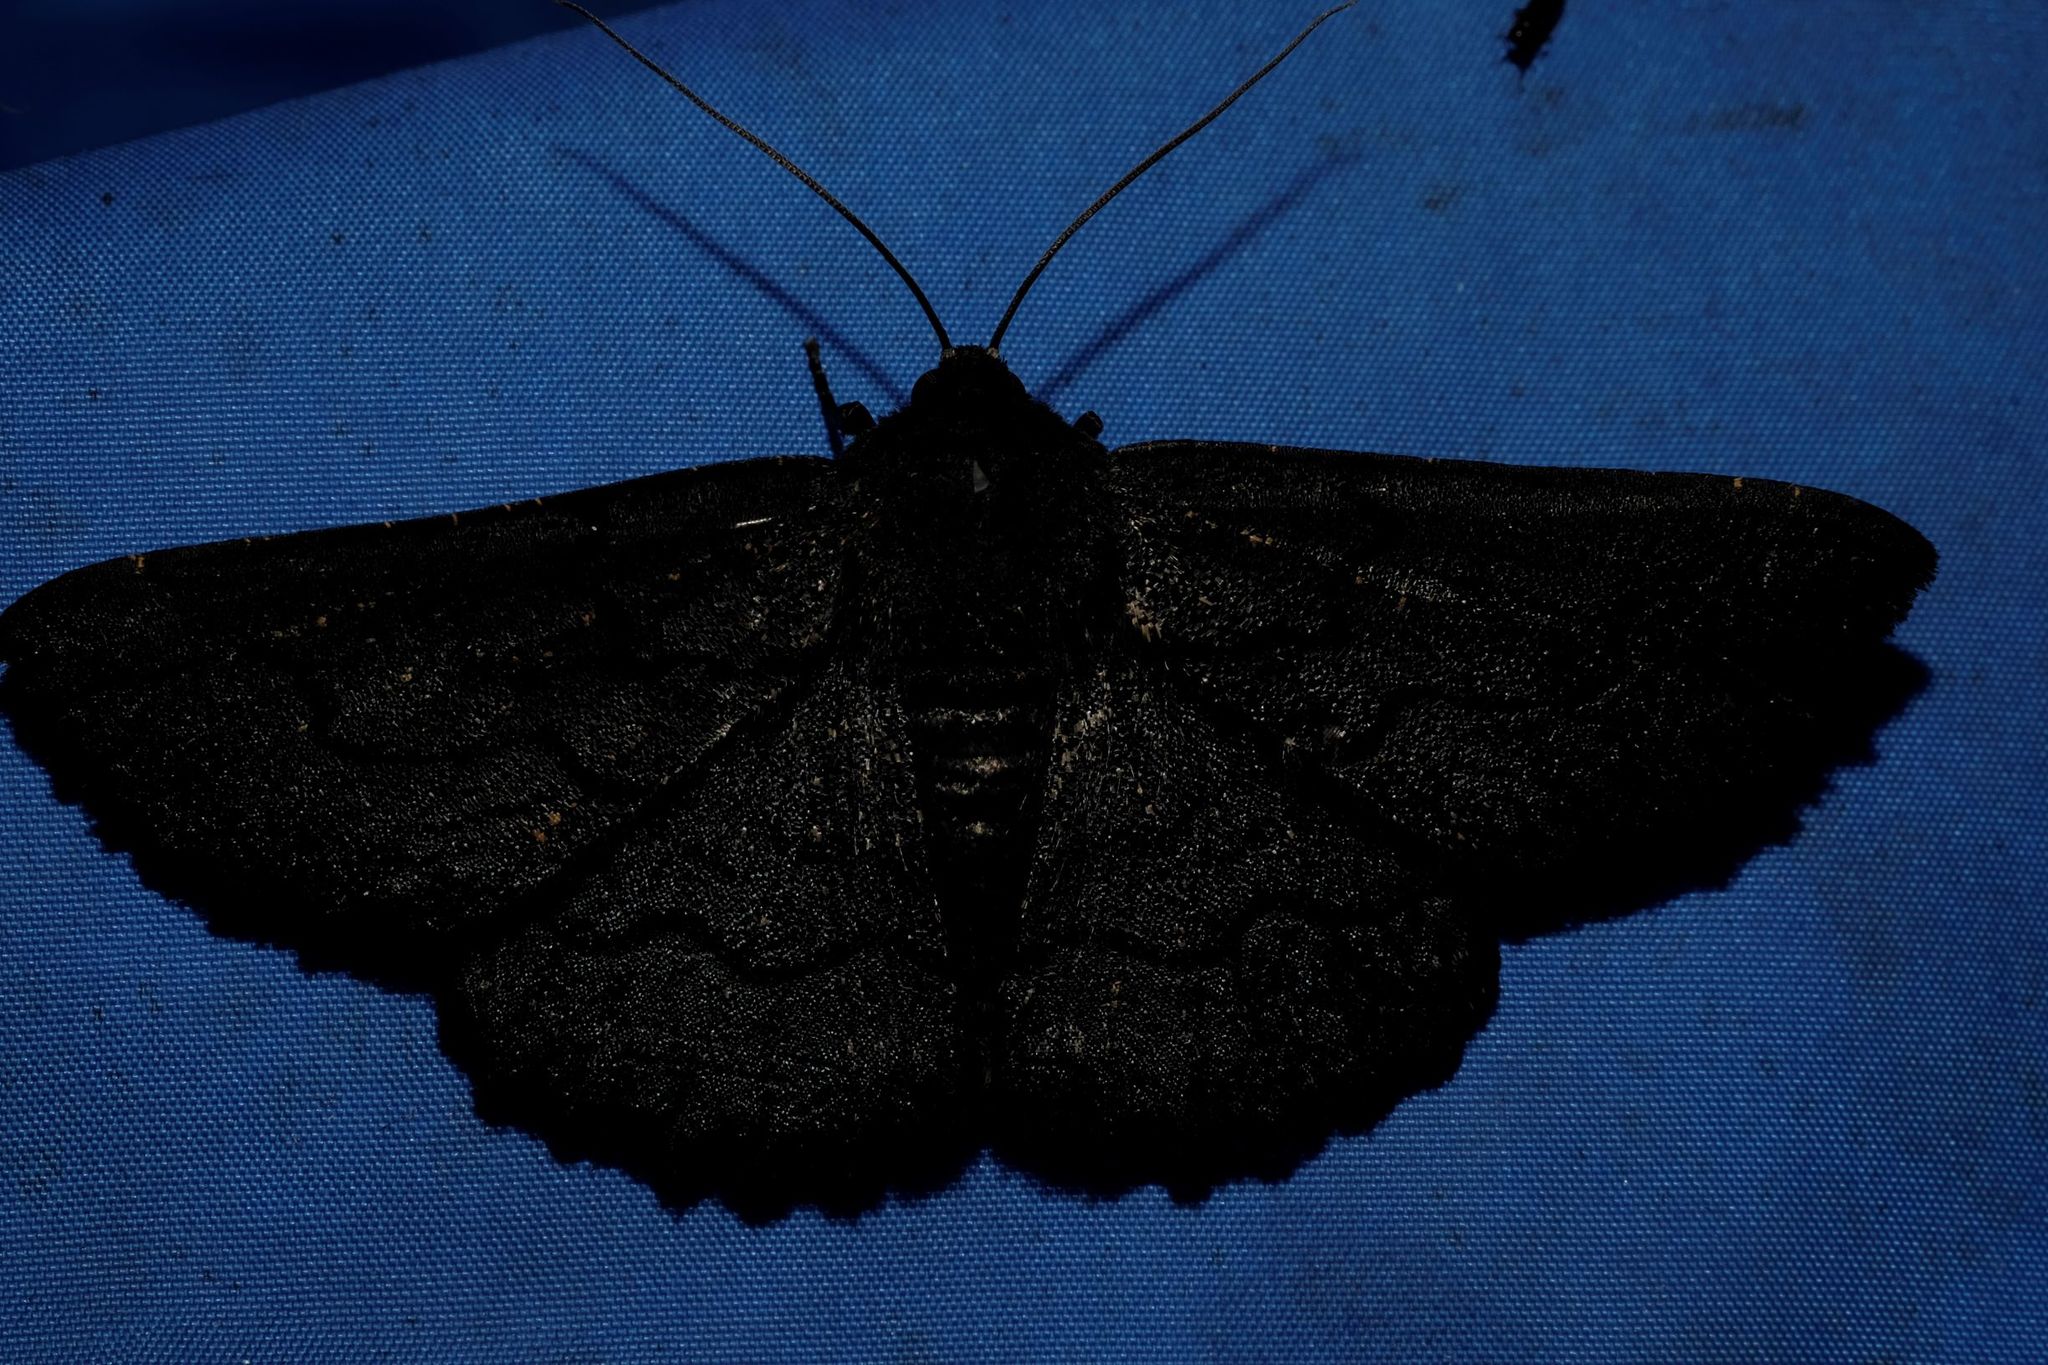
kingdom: Animalia
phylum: Arthropoda
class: Insecta
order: Lepidoptera
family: Geometridae
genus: Melanodes
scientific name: Melanodes anthracitaria
